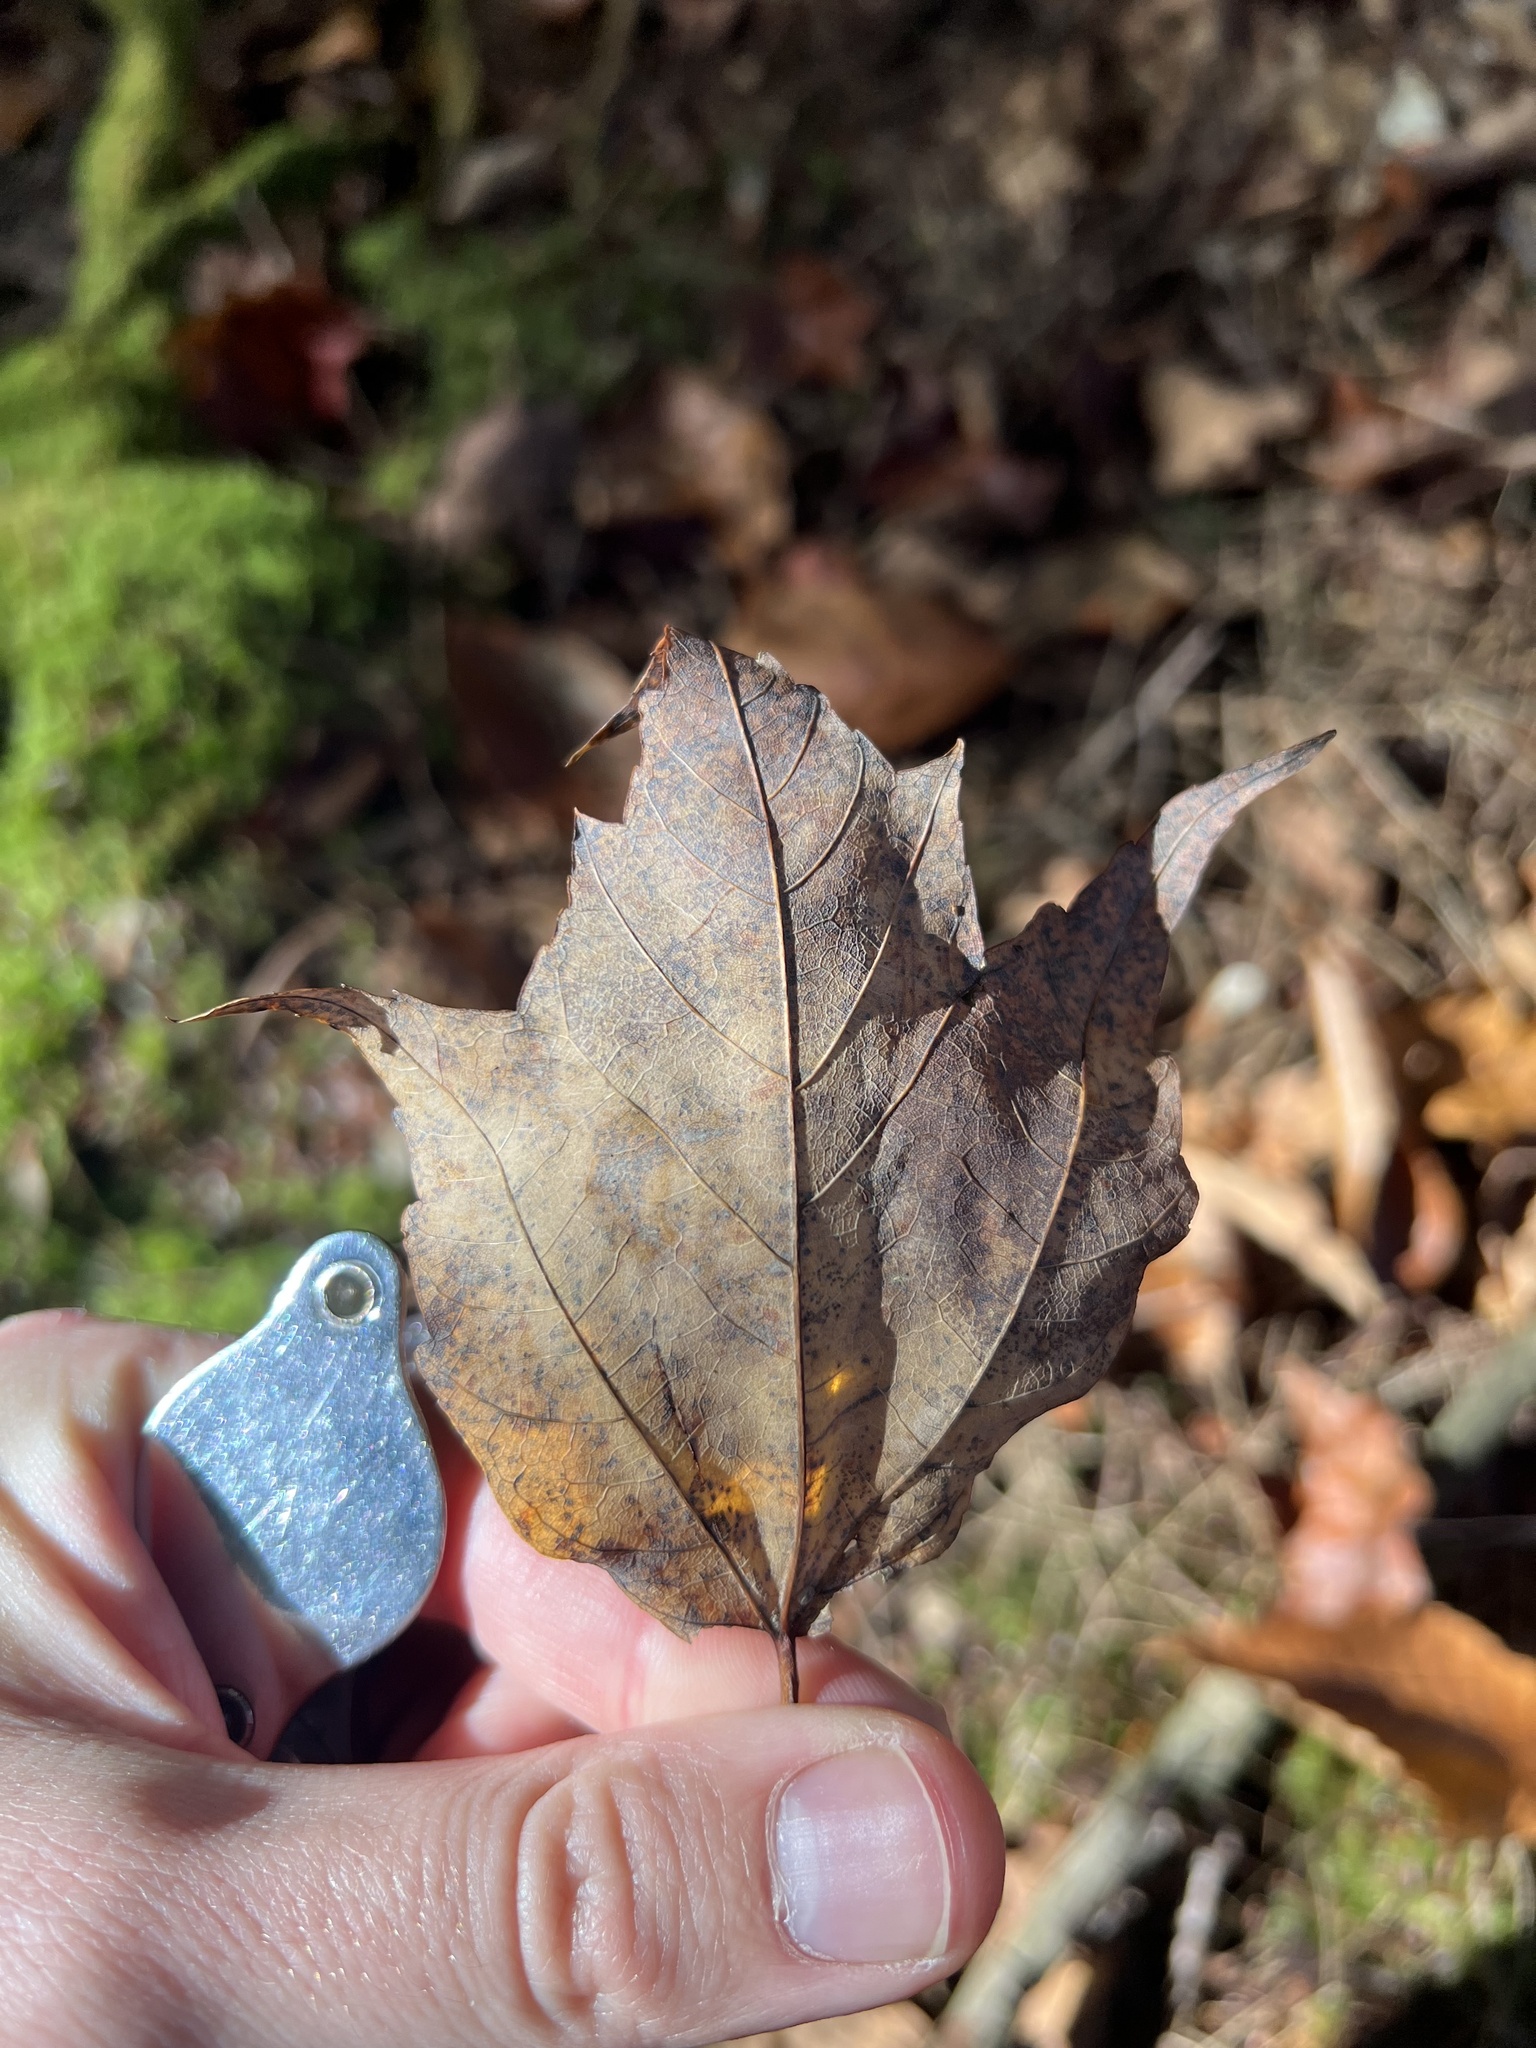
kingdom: Plantae
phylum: Tracheophyta
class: Magnoliopsida
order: Sapindales
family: Sapindaceae
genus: Acer
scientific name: Acer rubrum
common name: Red maple
